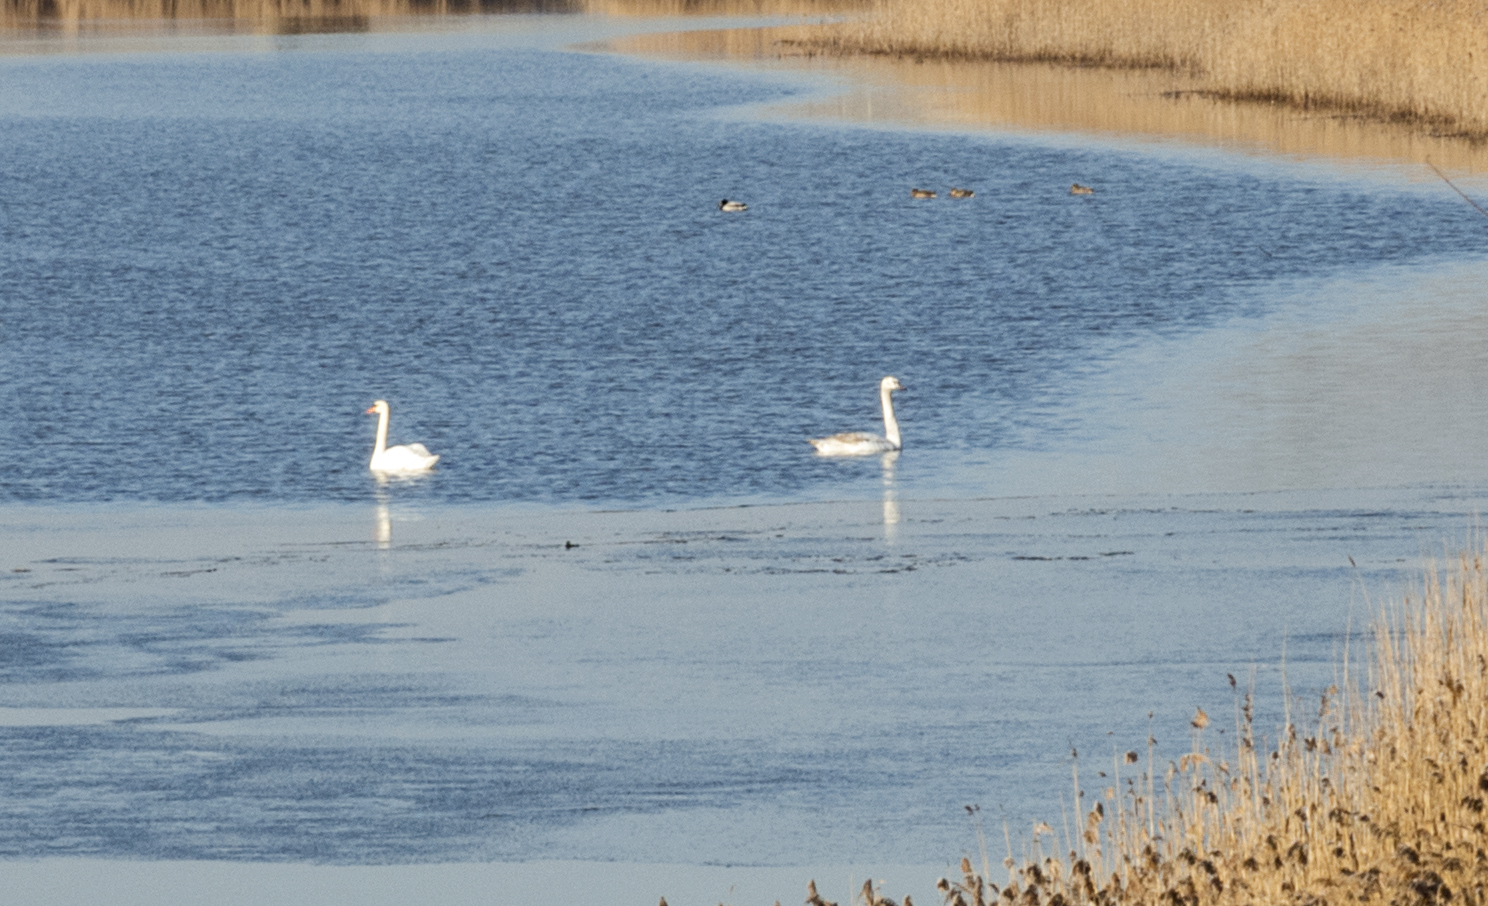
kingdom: Animalia
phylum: Chordata
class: Aves
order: Anseriformes
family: Anatidae
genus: Cygnus
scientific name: Cygnus olor
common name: Mute swan
